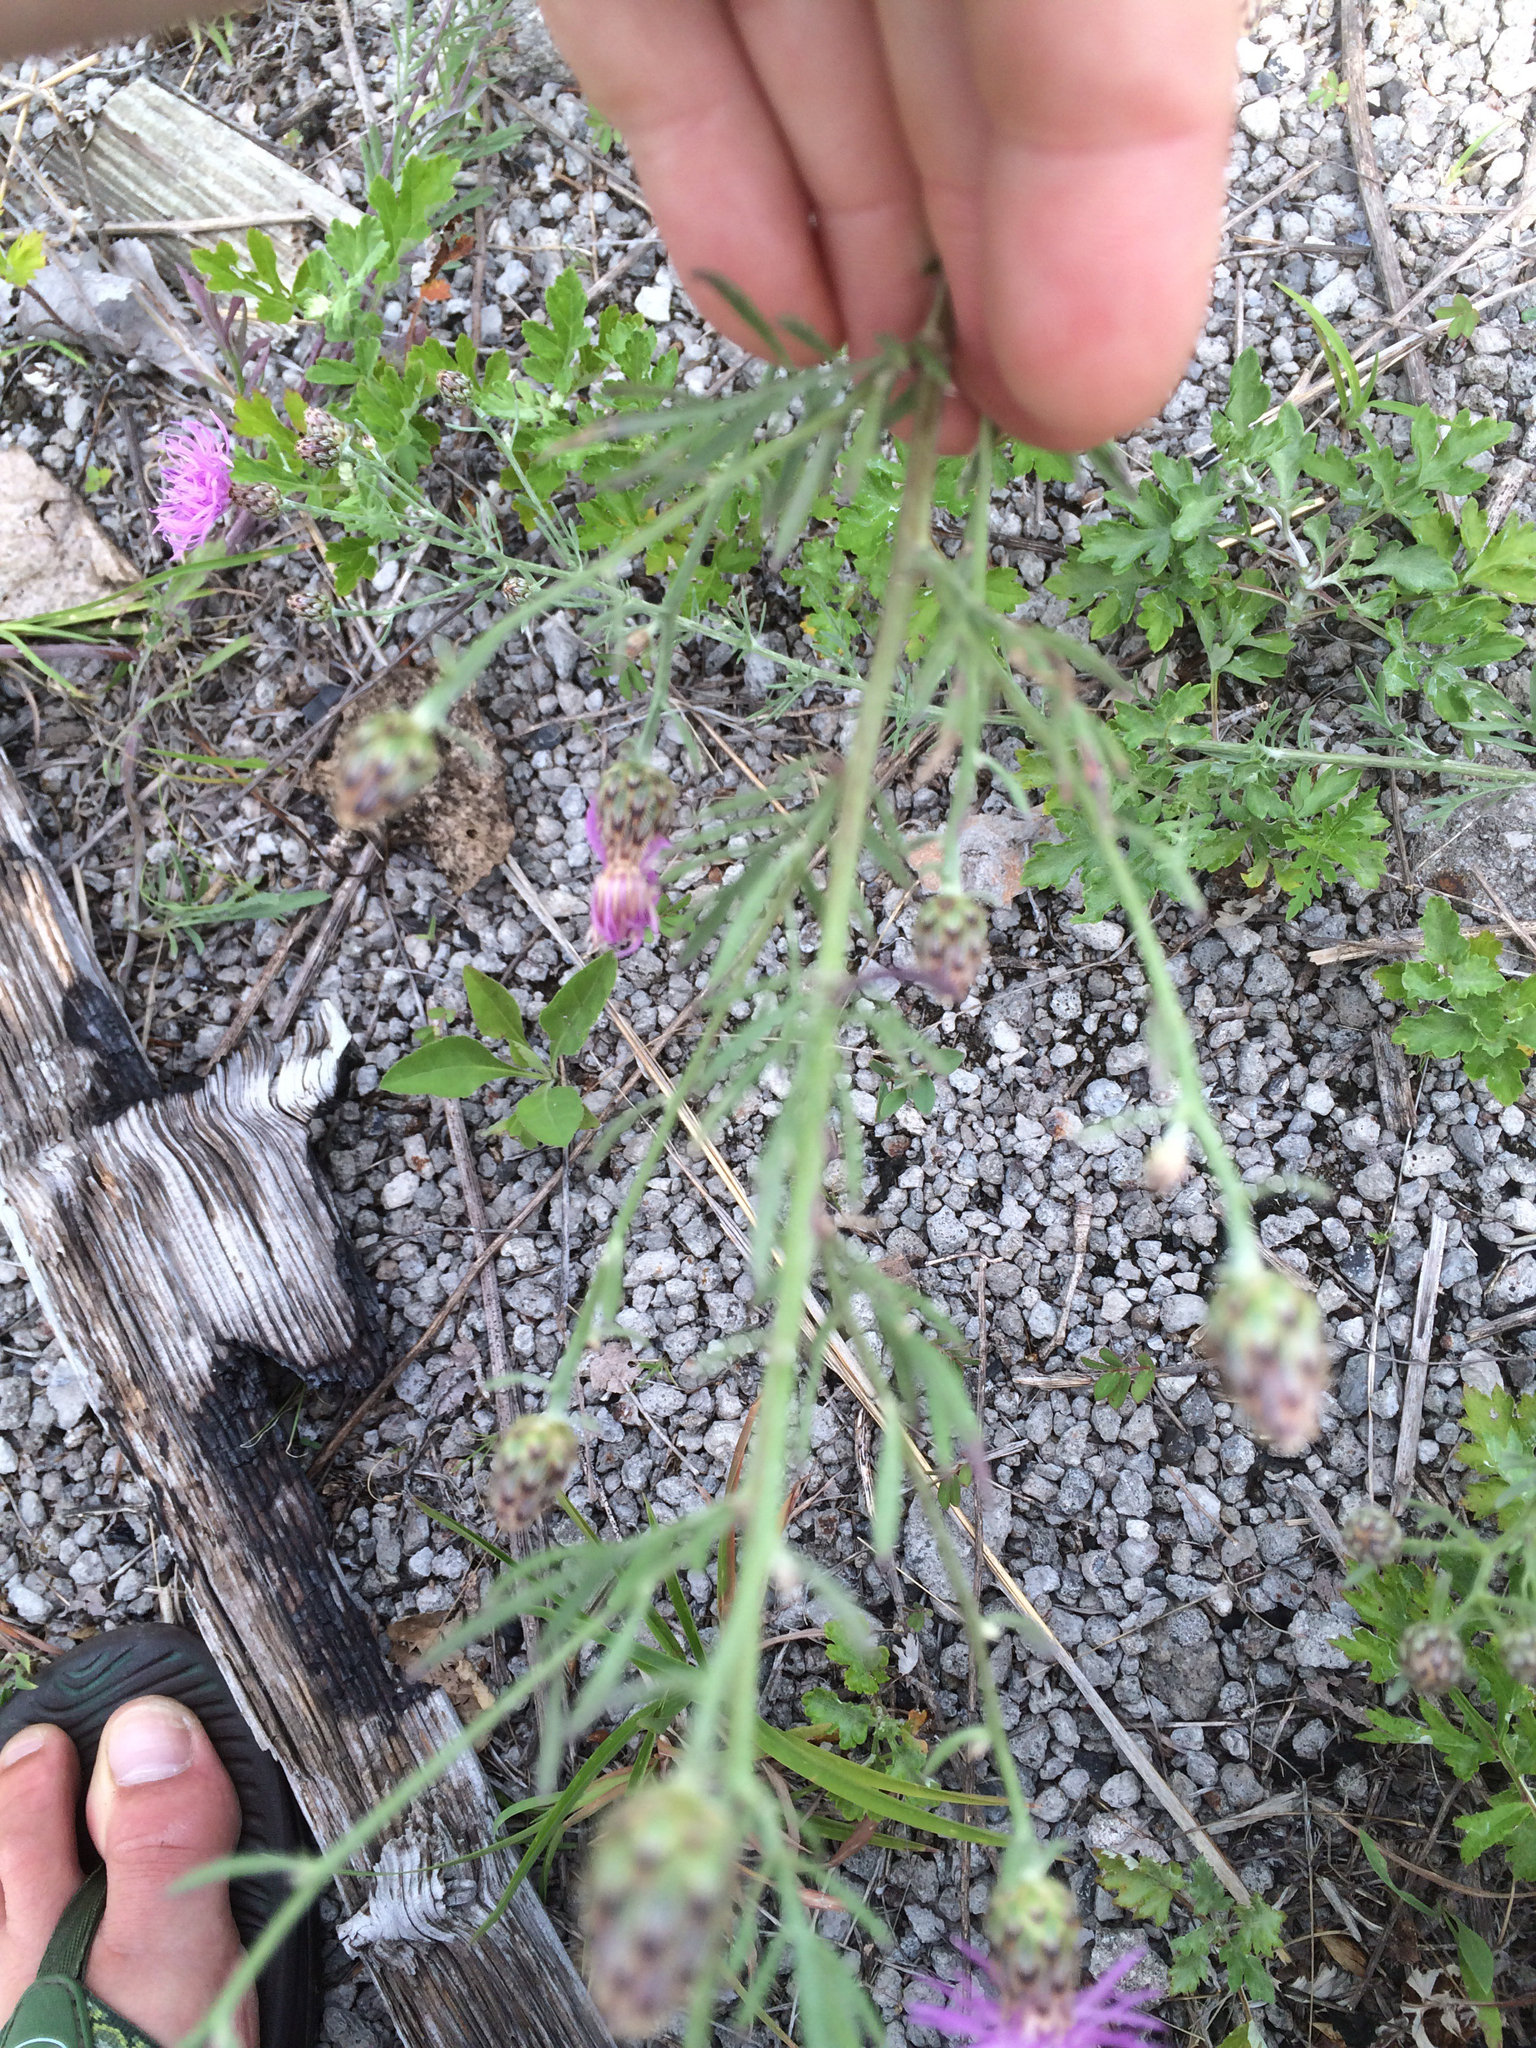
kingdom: Plantae
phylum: Tracheophyta
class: Magnoliopsida
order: Asterales
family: Asteraceae
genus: Centaurea
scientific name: Centaurea stoebe
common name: Spotted knapweed
